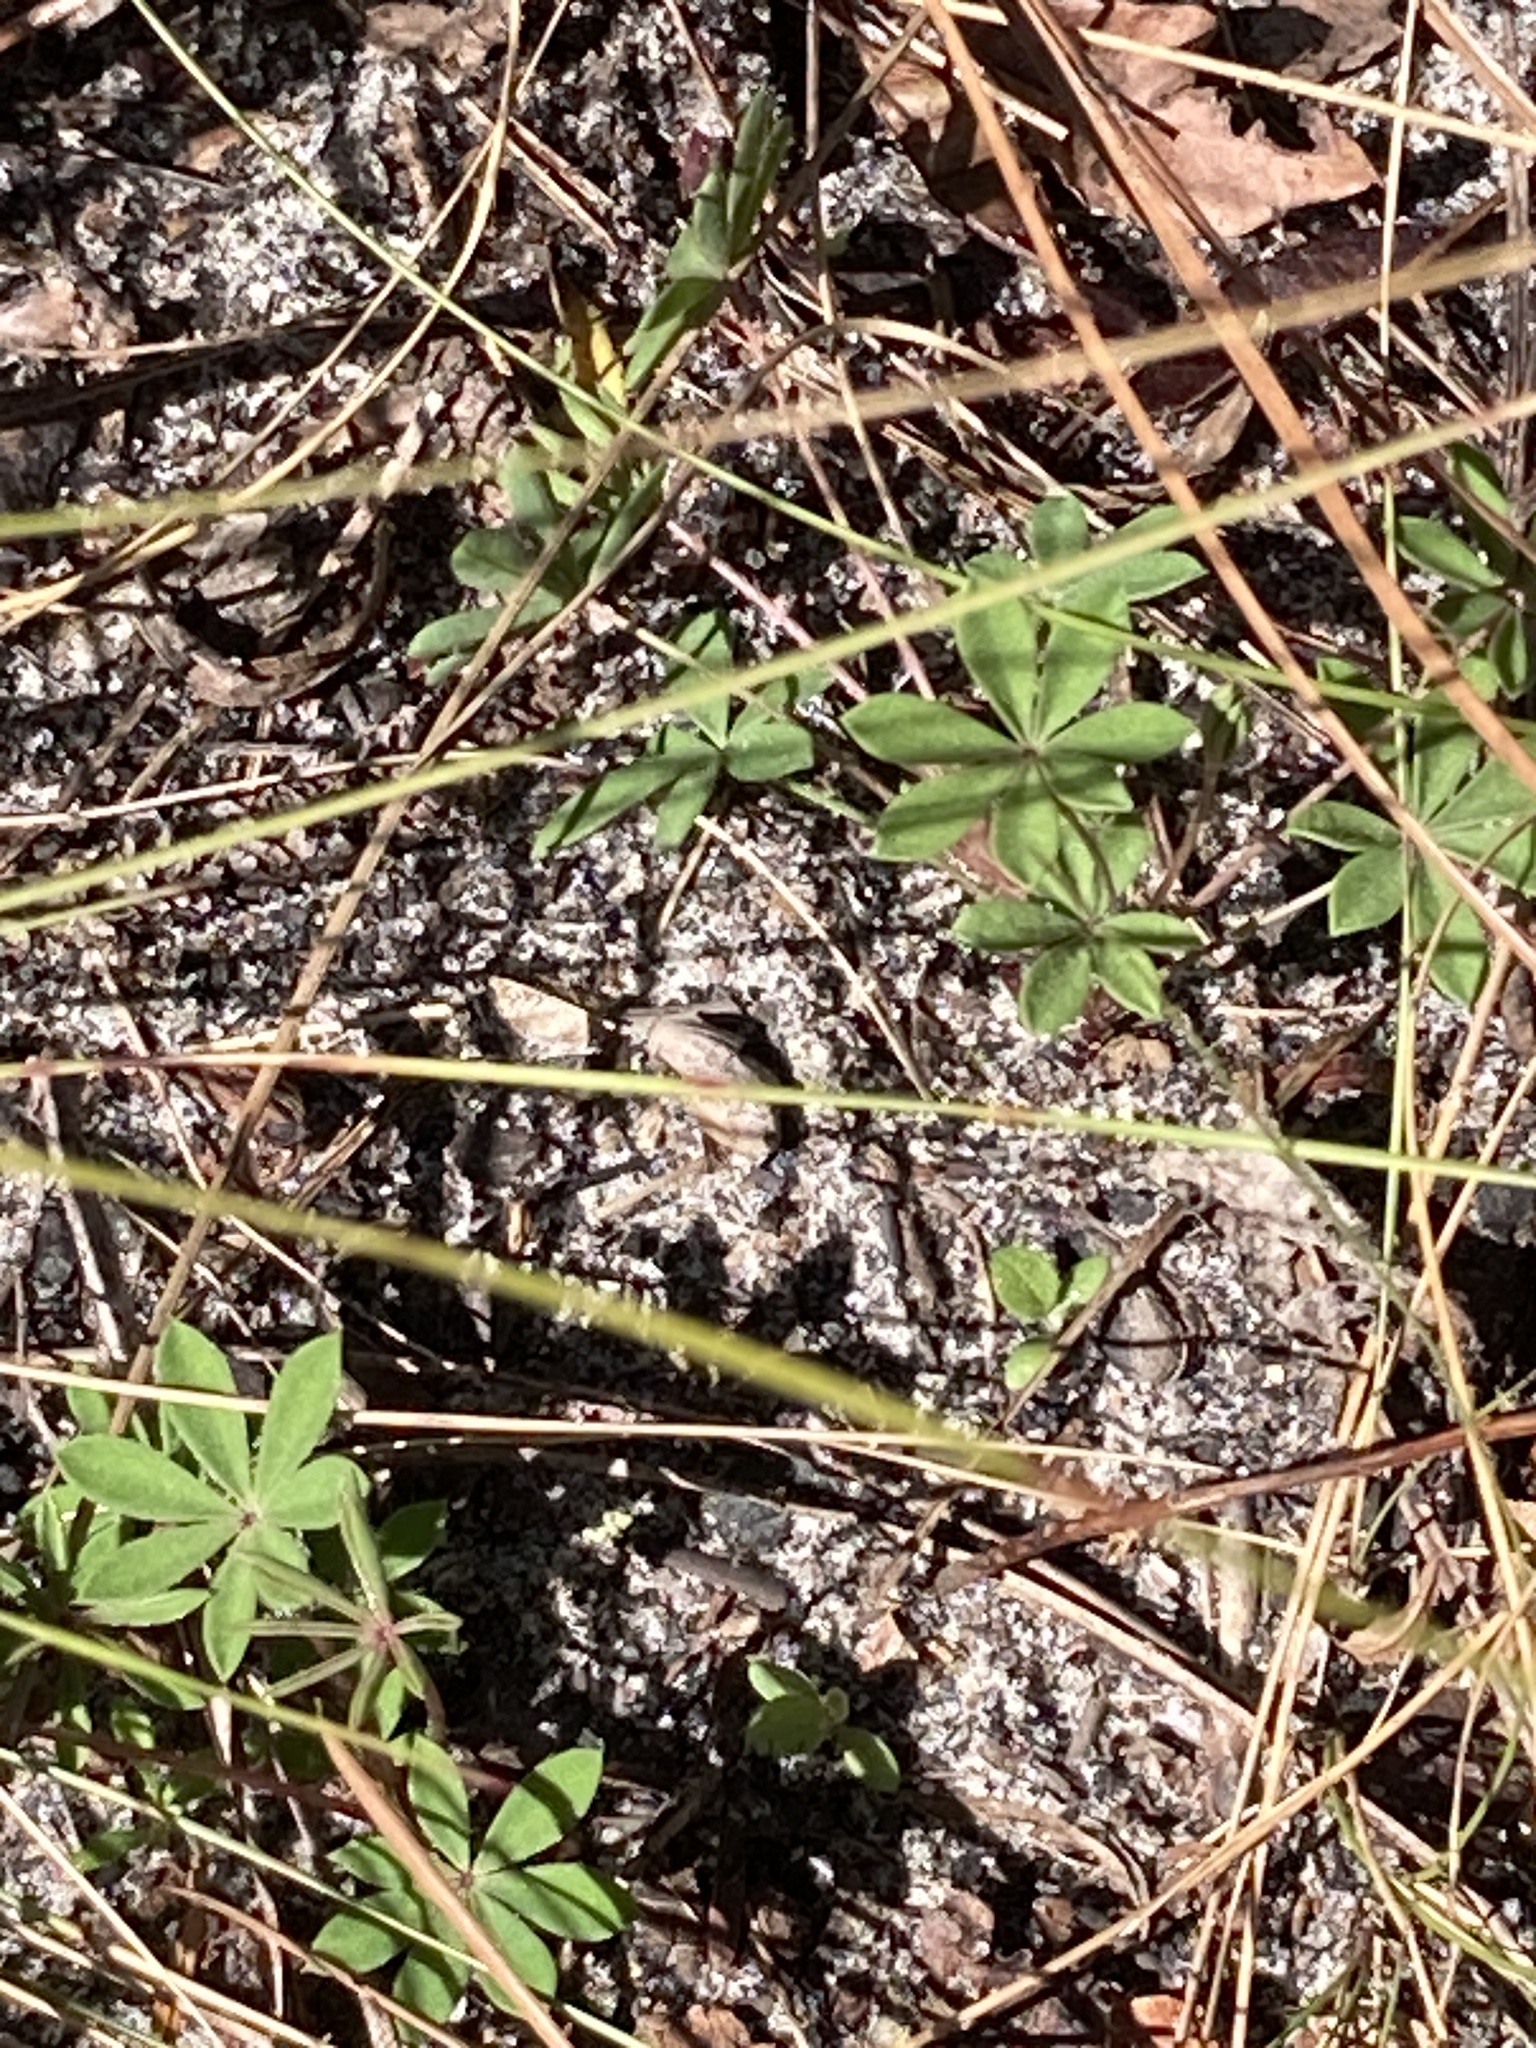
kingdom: Plantae
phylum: Tracheophyta
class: Magnoliopsida
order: Fabales
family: Fabaceae
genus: Lupinus
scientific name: Lupinus perennis
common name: Sundial lupine
